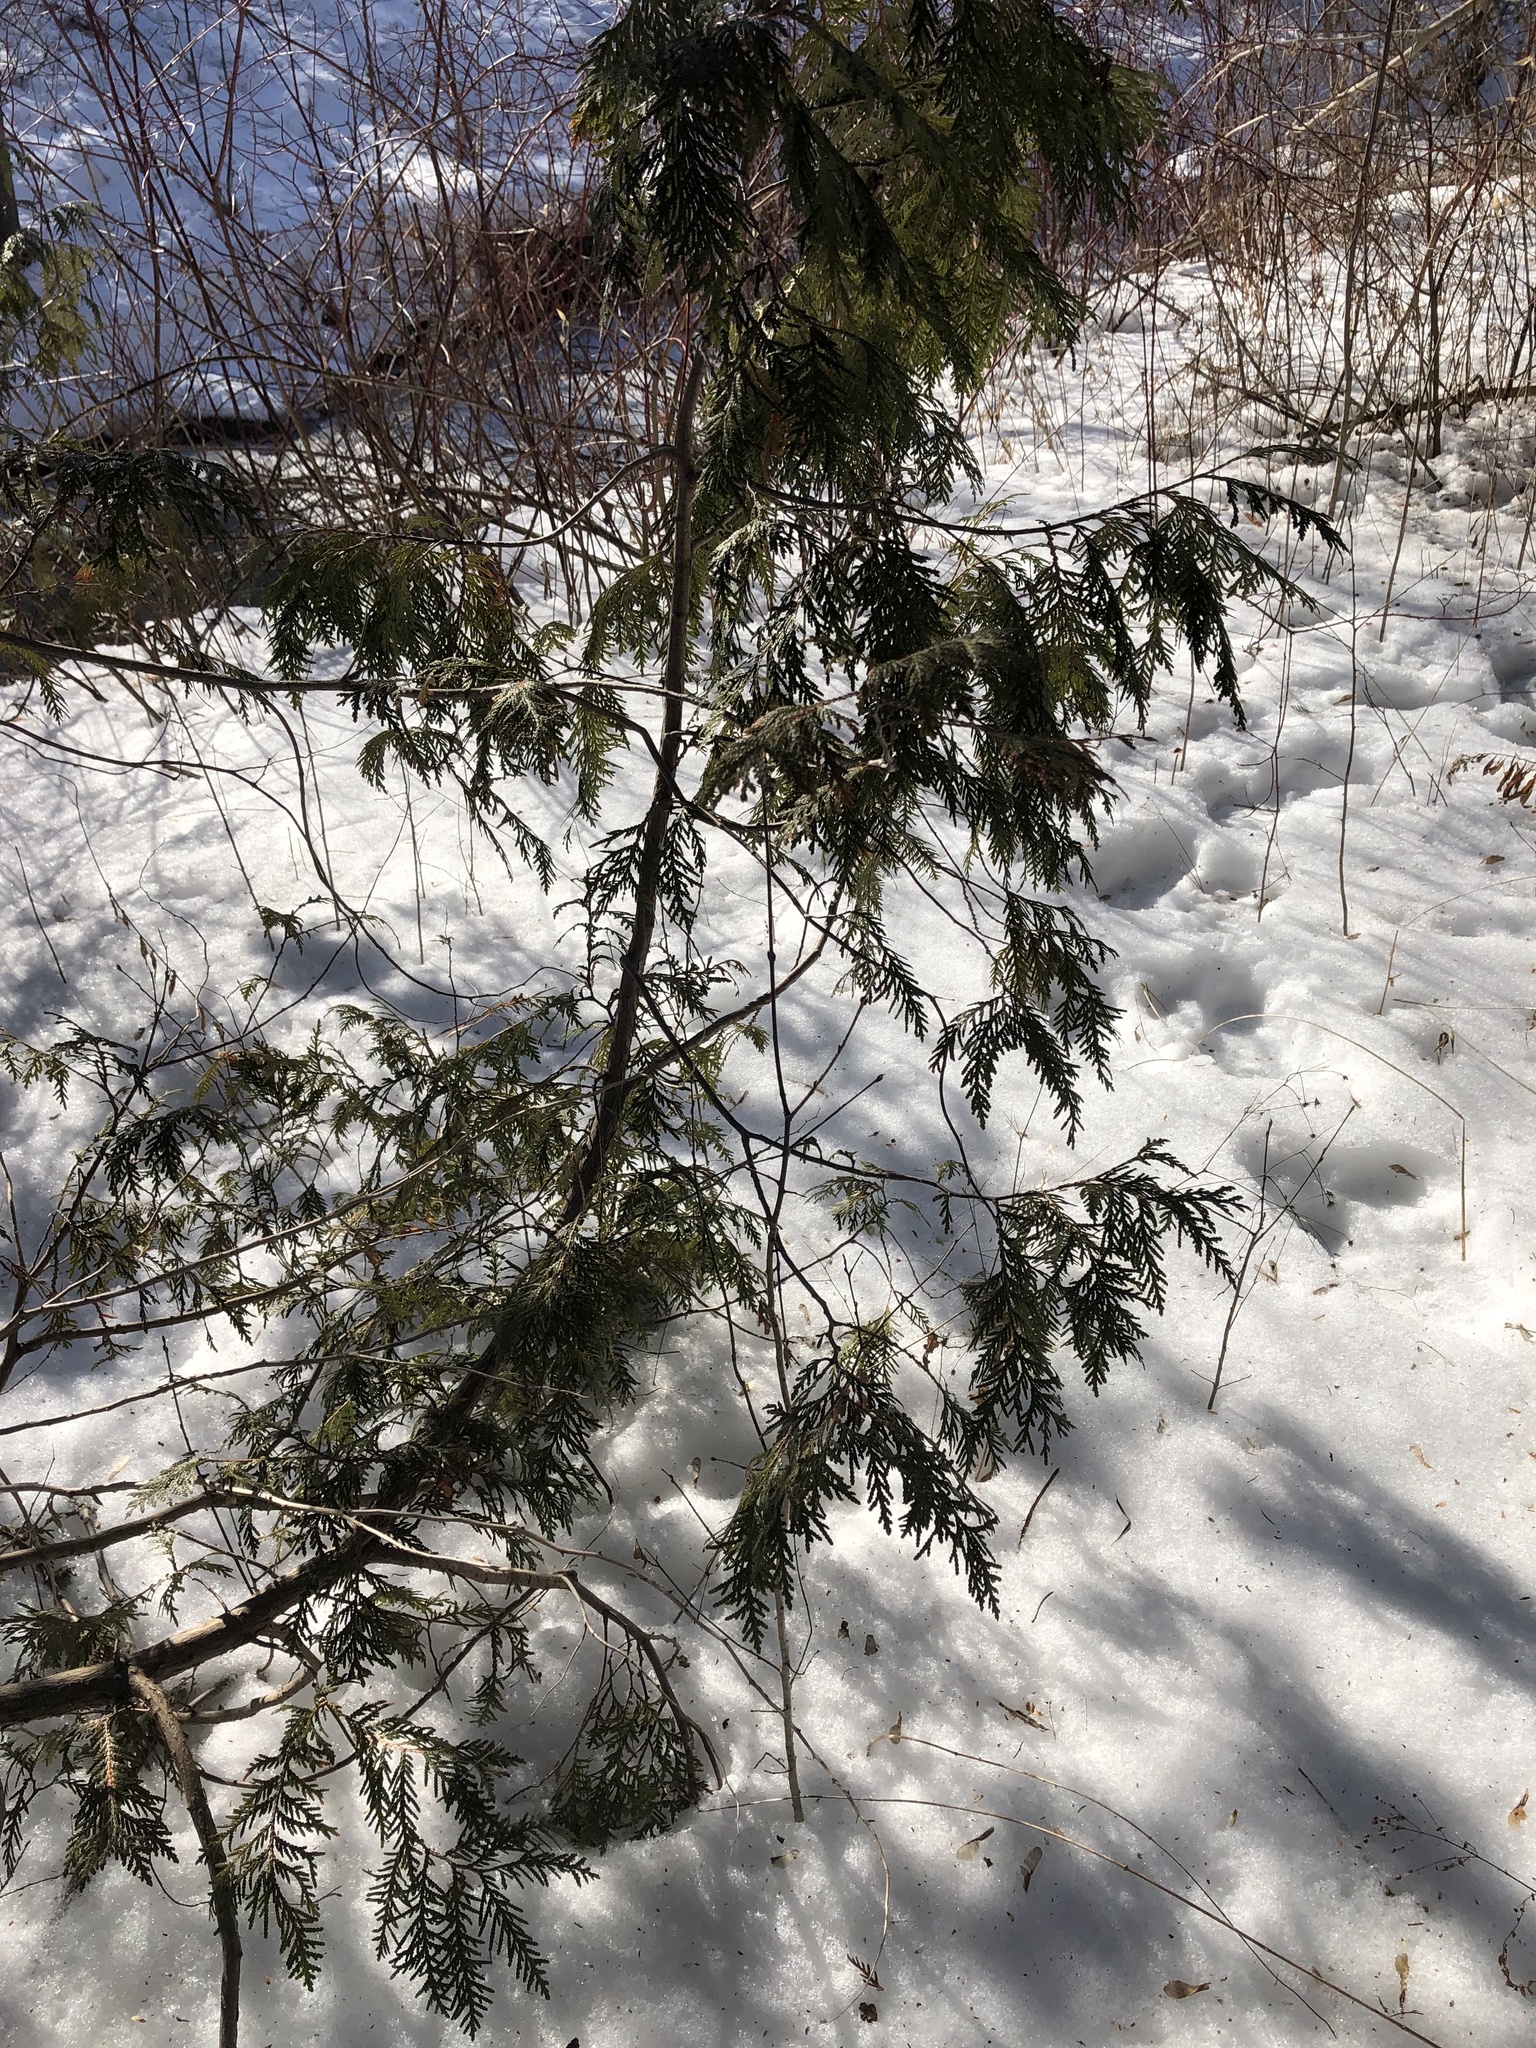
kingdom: Plantae
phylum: Tracheophyta
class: Pinopsida
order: Pinales
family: Cupressaceae
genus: Thuja
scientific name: Thuja occidentalis
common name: Northern white-cedar
